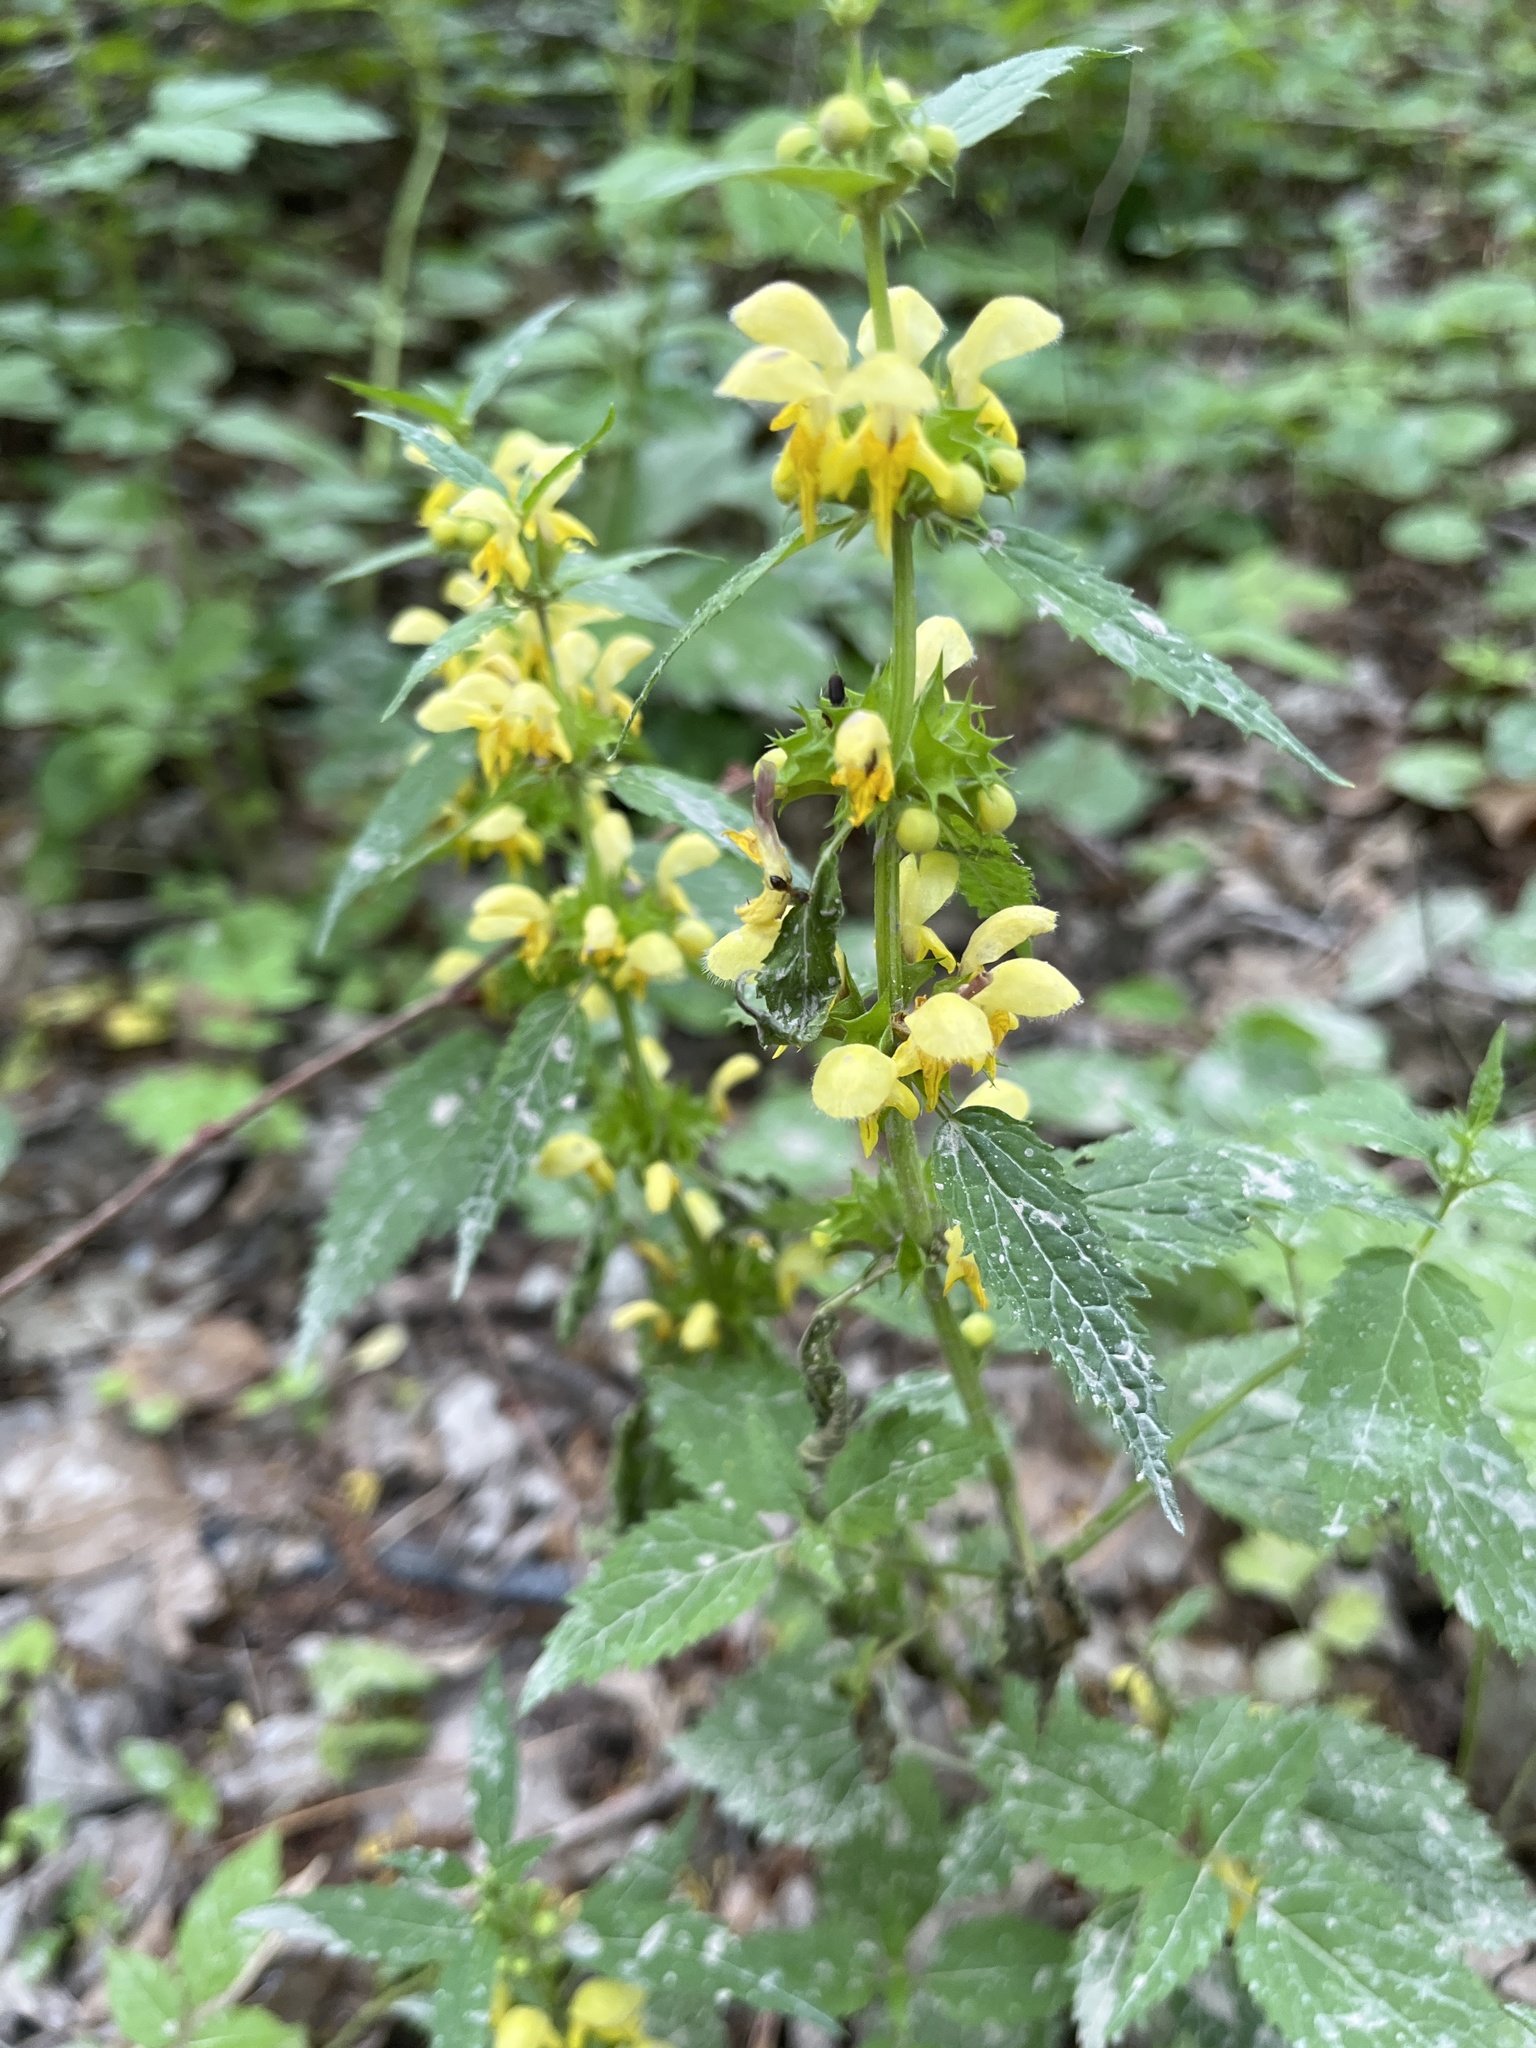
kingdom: Plantae
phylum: Tracheophyta
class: Magnoliopsida
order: Lamiales
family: Lamiaceae
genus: Lamium
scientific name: Lamium galeobdolon
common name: Yellow archangel
